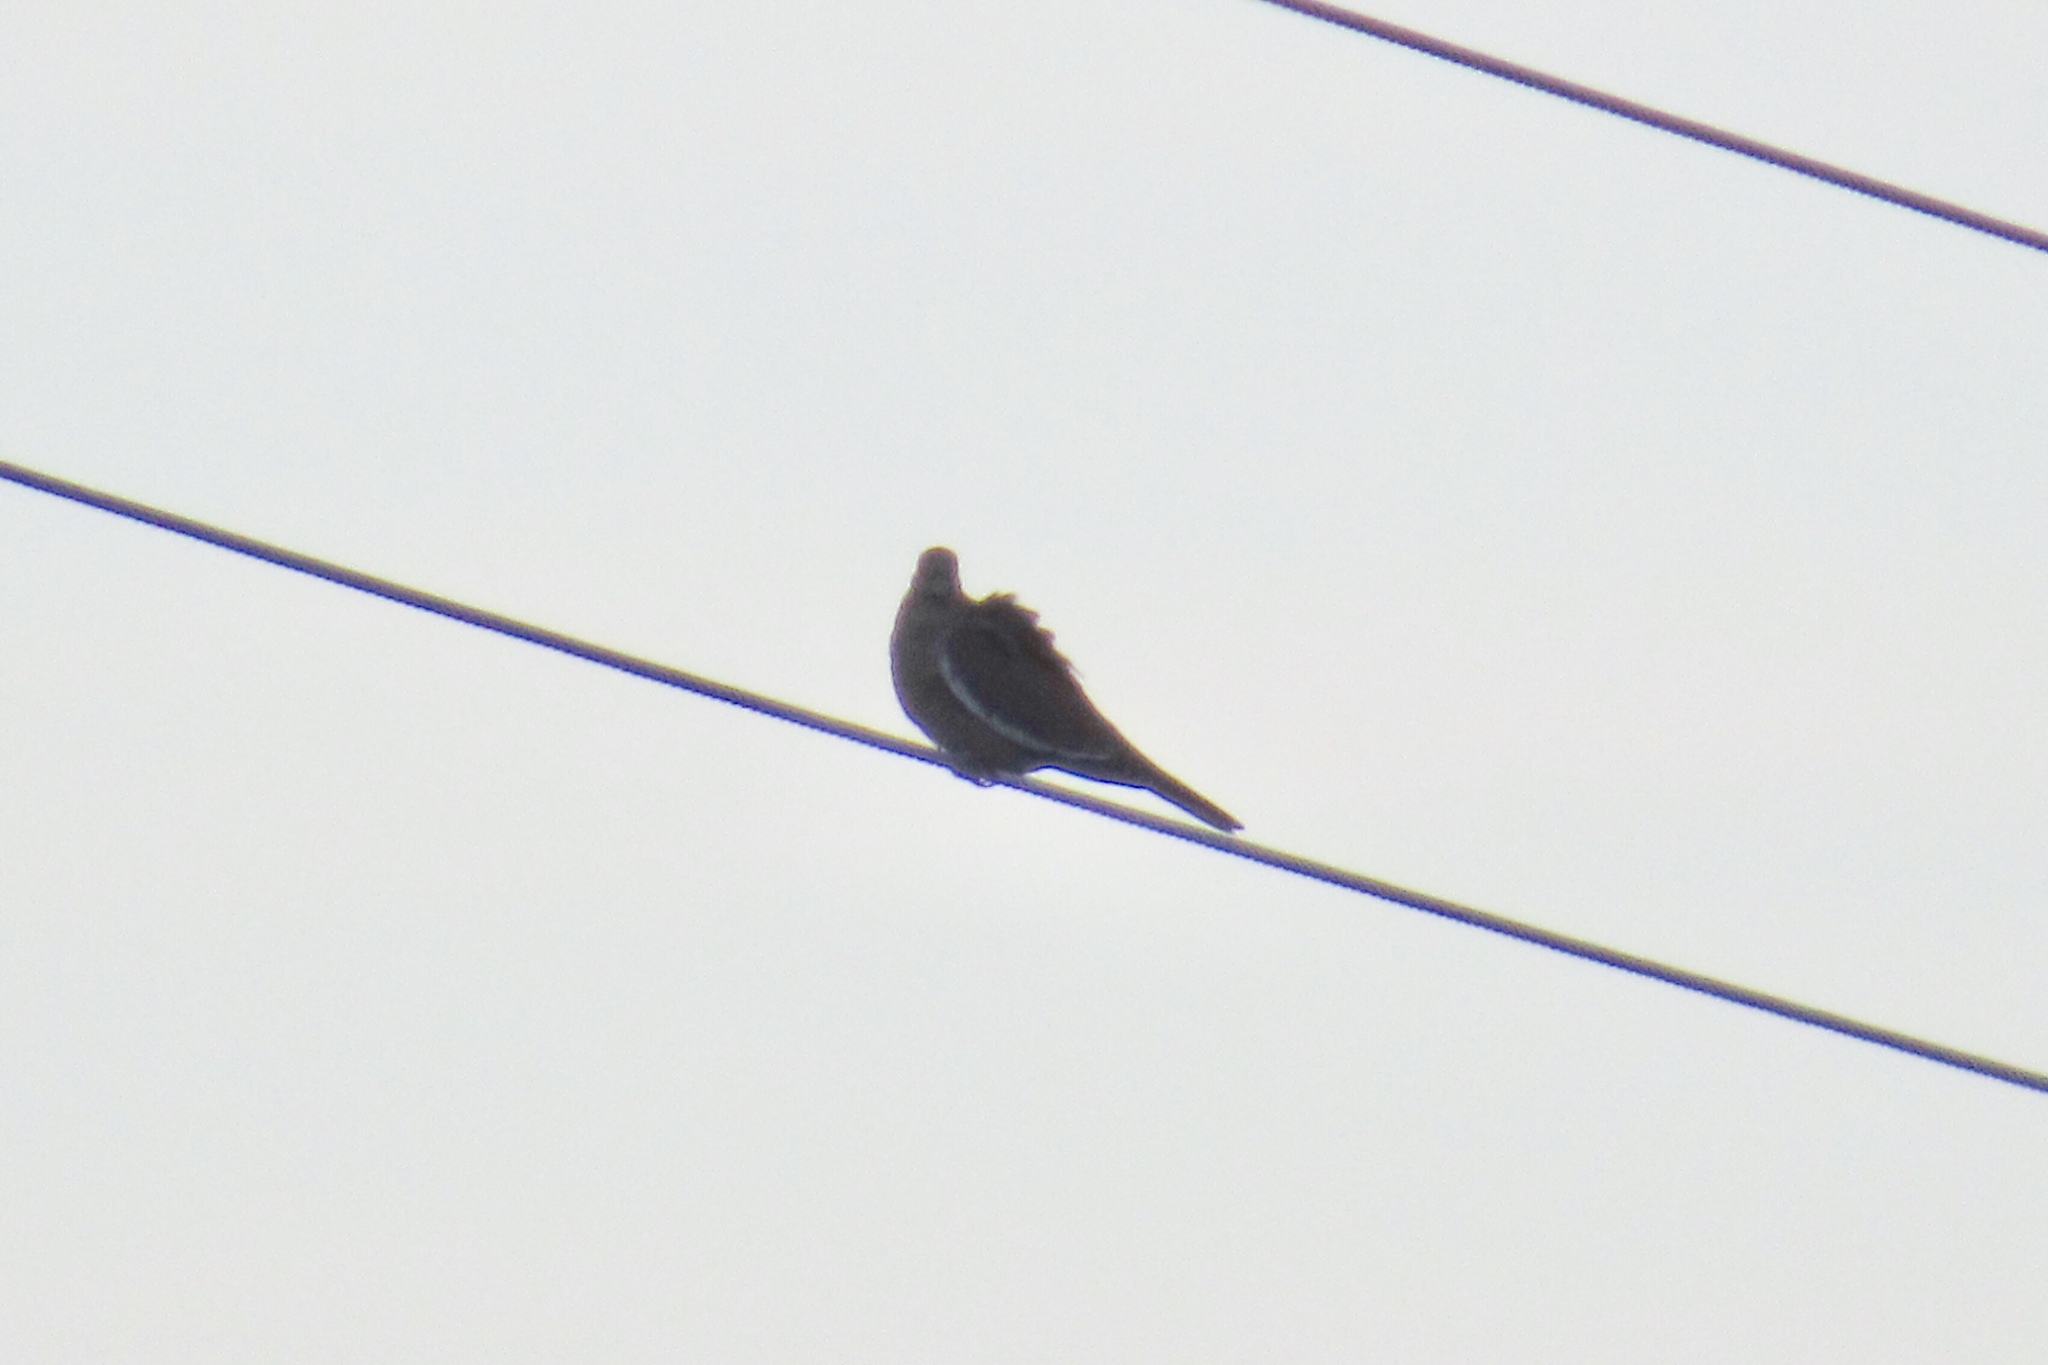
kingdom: Animalia
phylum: Chordata
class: Aves
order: Columbiformes
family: Columbidae
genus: Zenaida
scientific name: Zenaida asiatica
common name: White-winged dove
